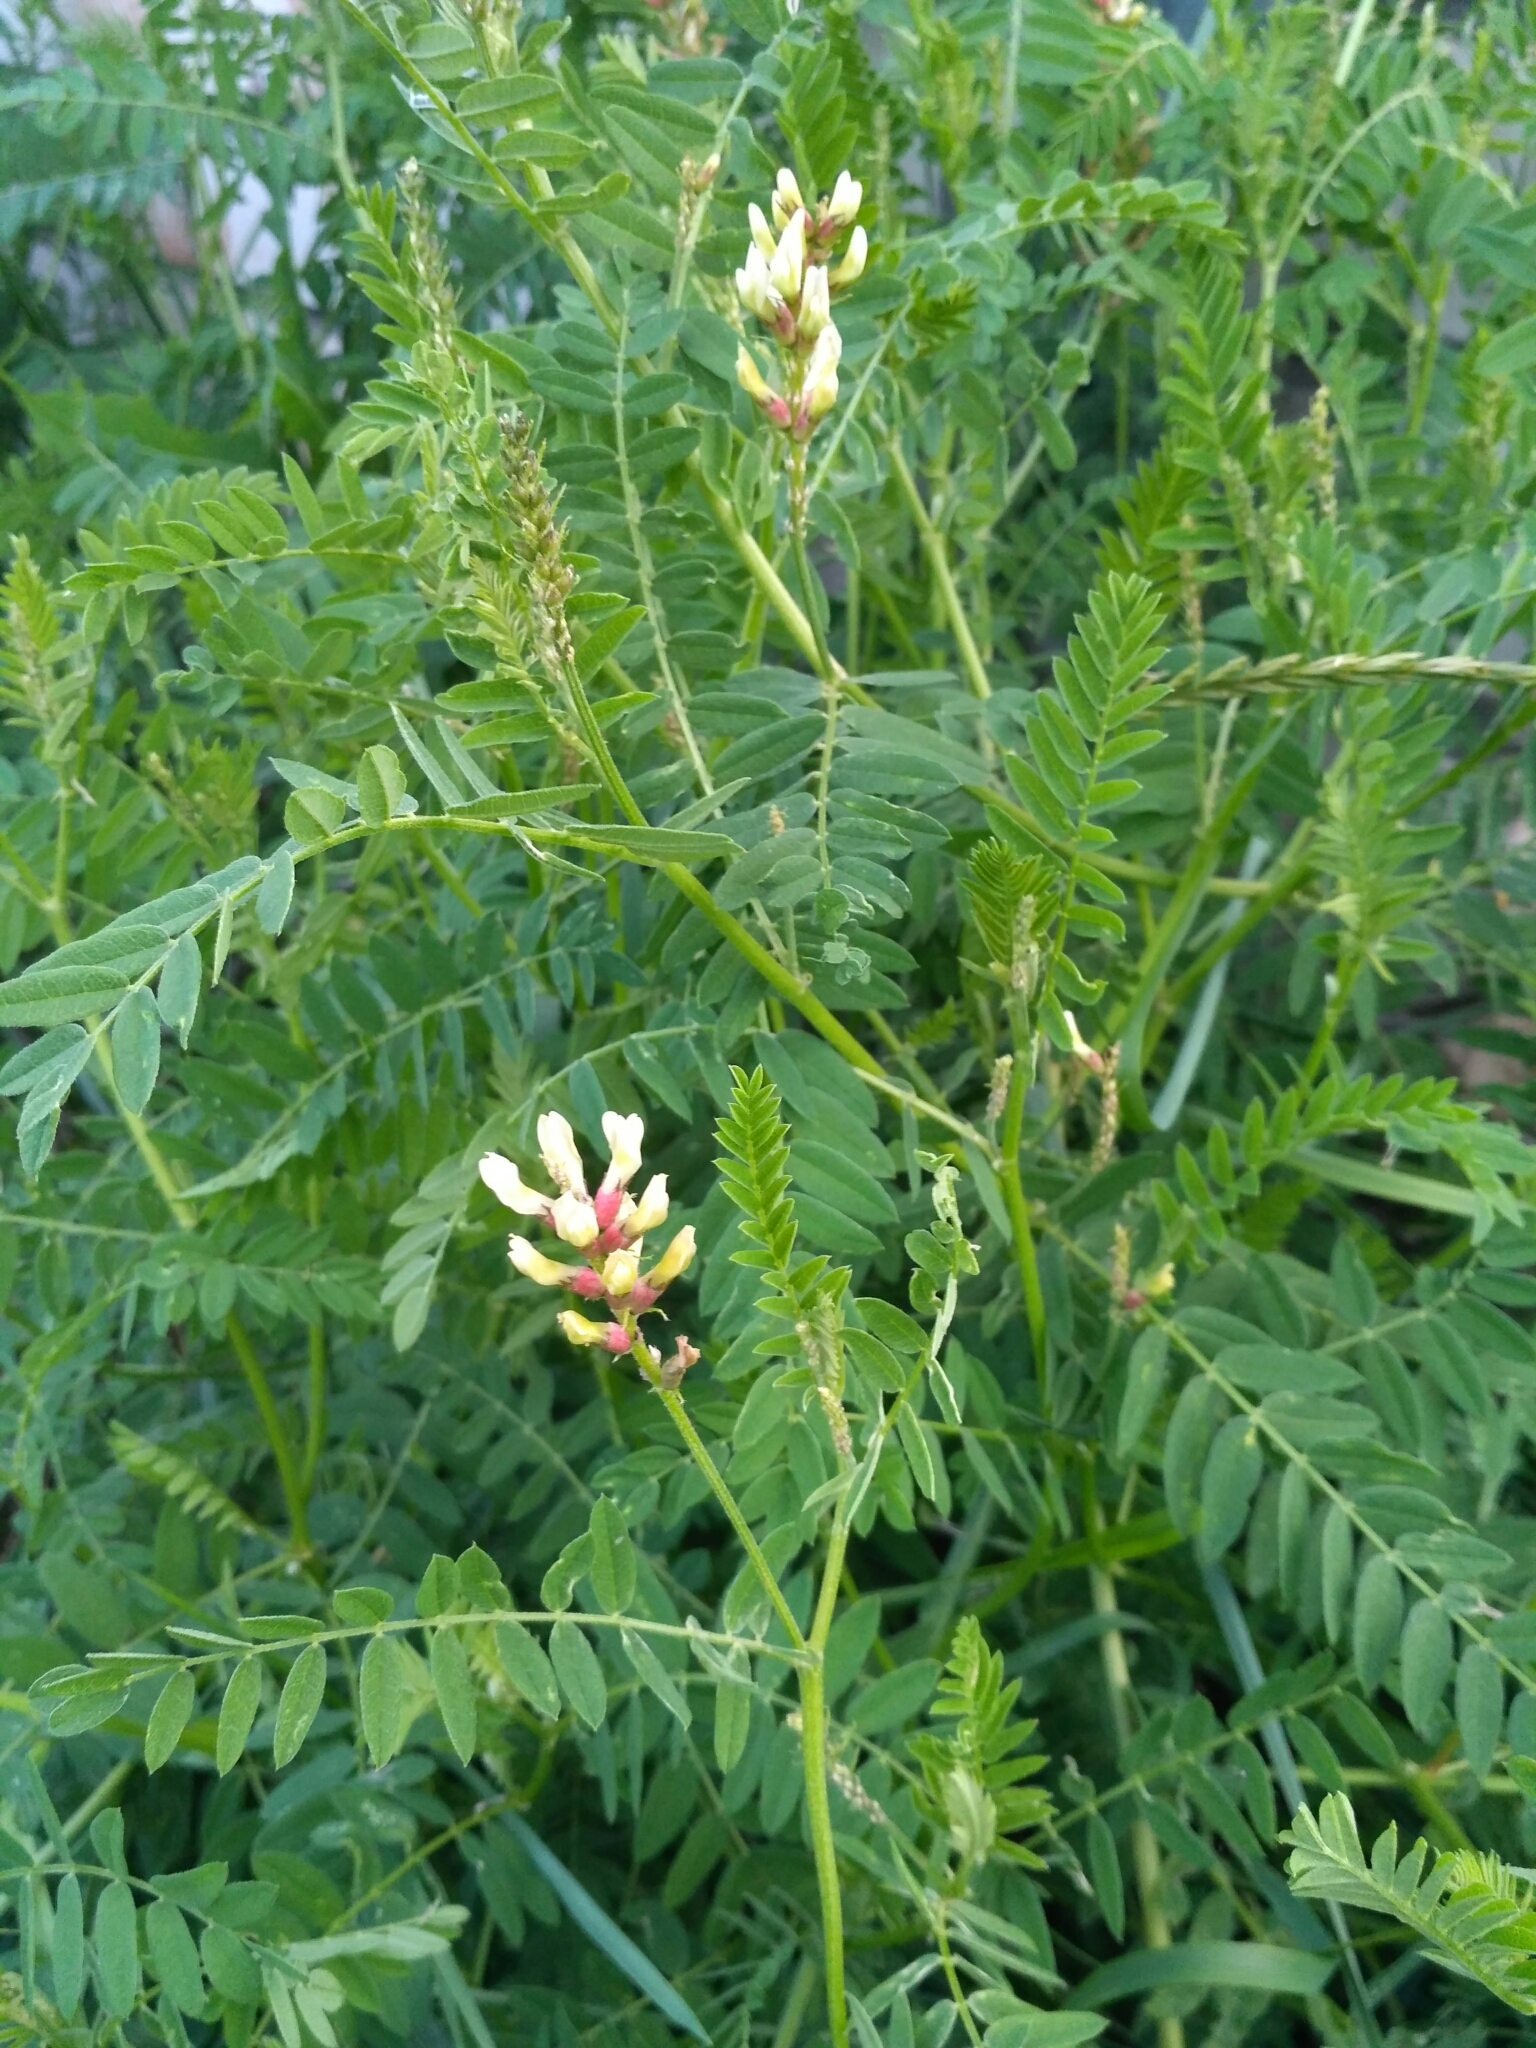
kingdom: Plantae
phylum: Tracheophyta
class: Magnoliopsida
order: Fabales
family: Fabaceae
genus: Astragalus
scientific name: Astragalus cicer
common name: Chick-pea milk-vetch
